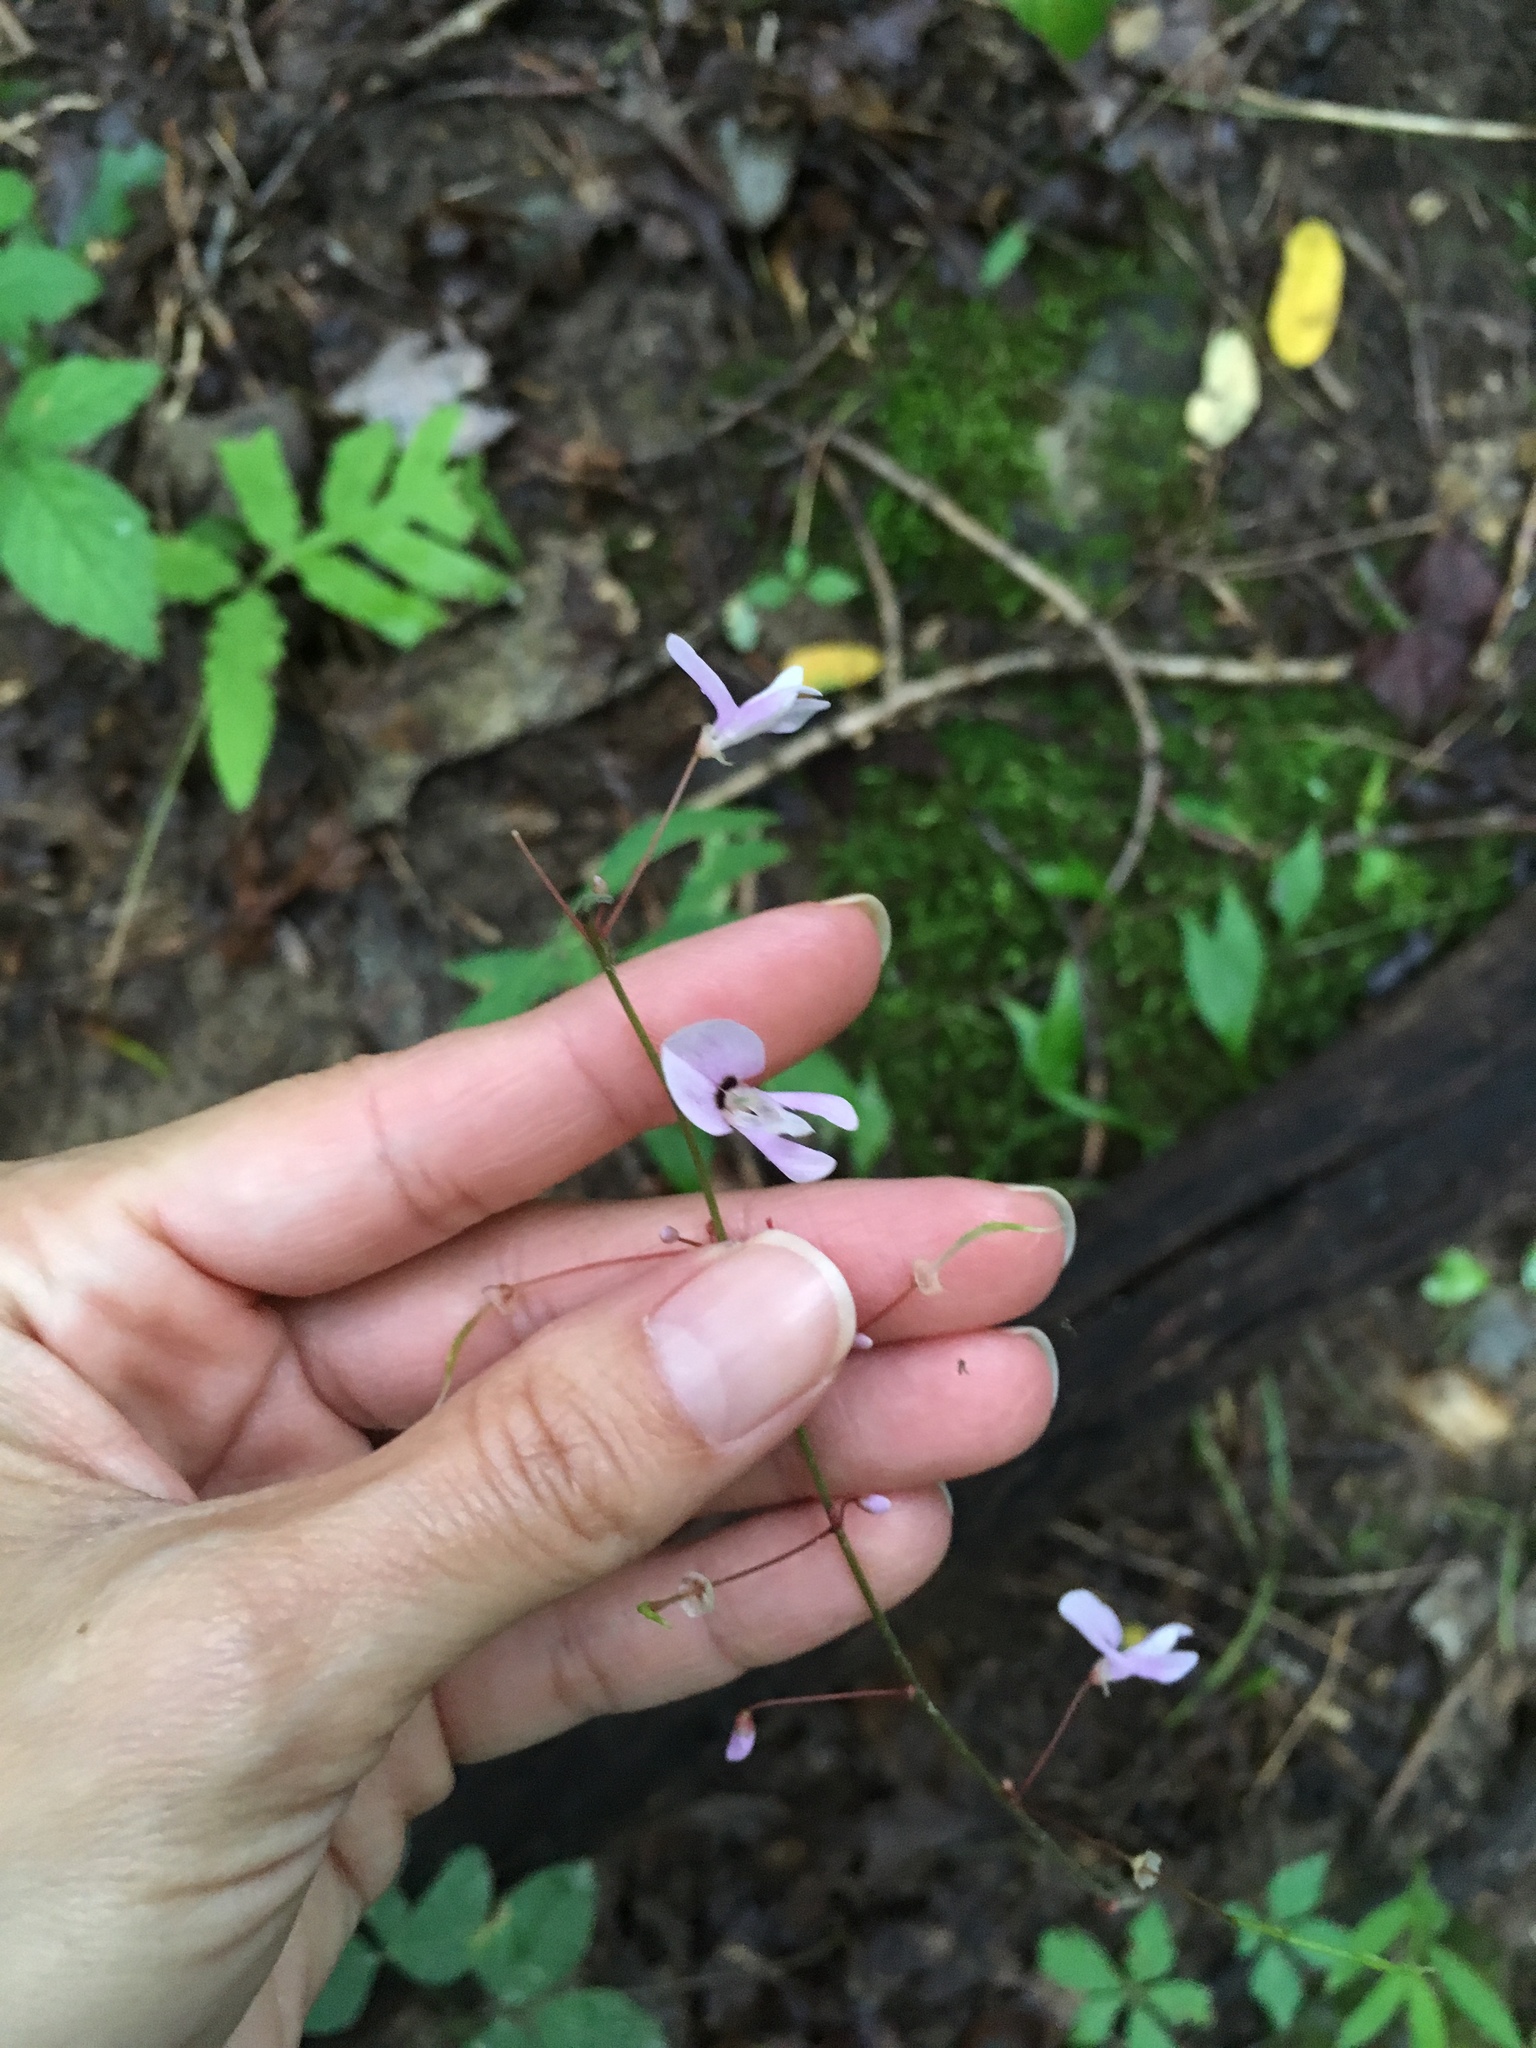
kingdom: Plantae
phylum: Tracheophyta
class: Magnoliopsida
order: Fabales
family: Fabaceae
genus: Hylodesmum
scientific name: Hylodesmum nudiflorum
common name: Bare-stemmed tick-trefoil
